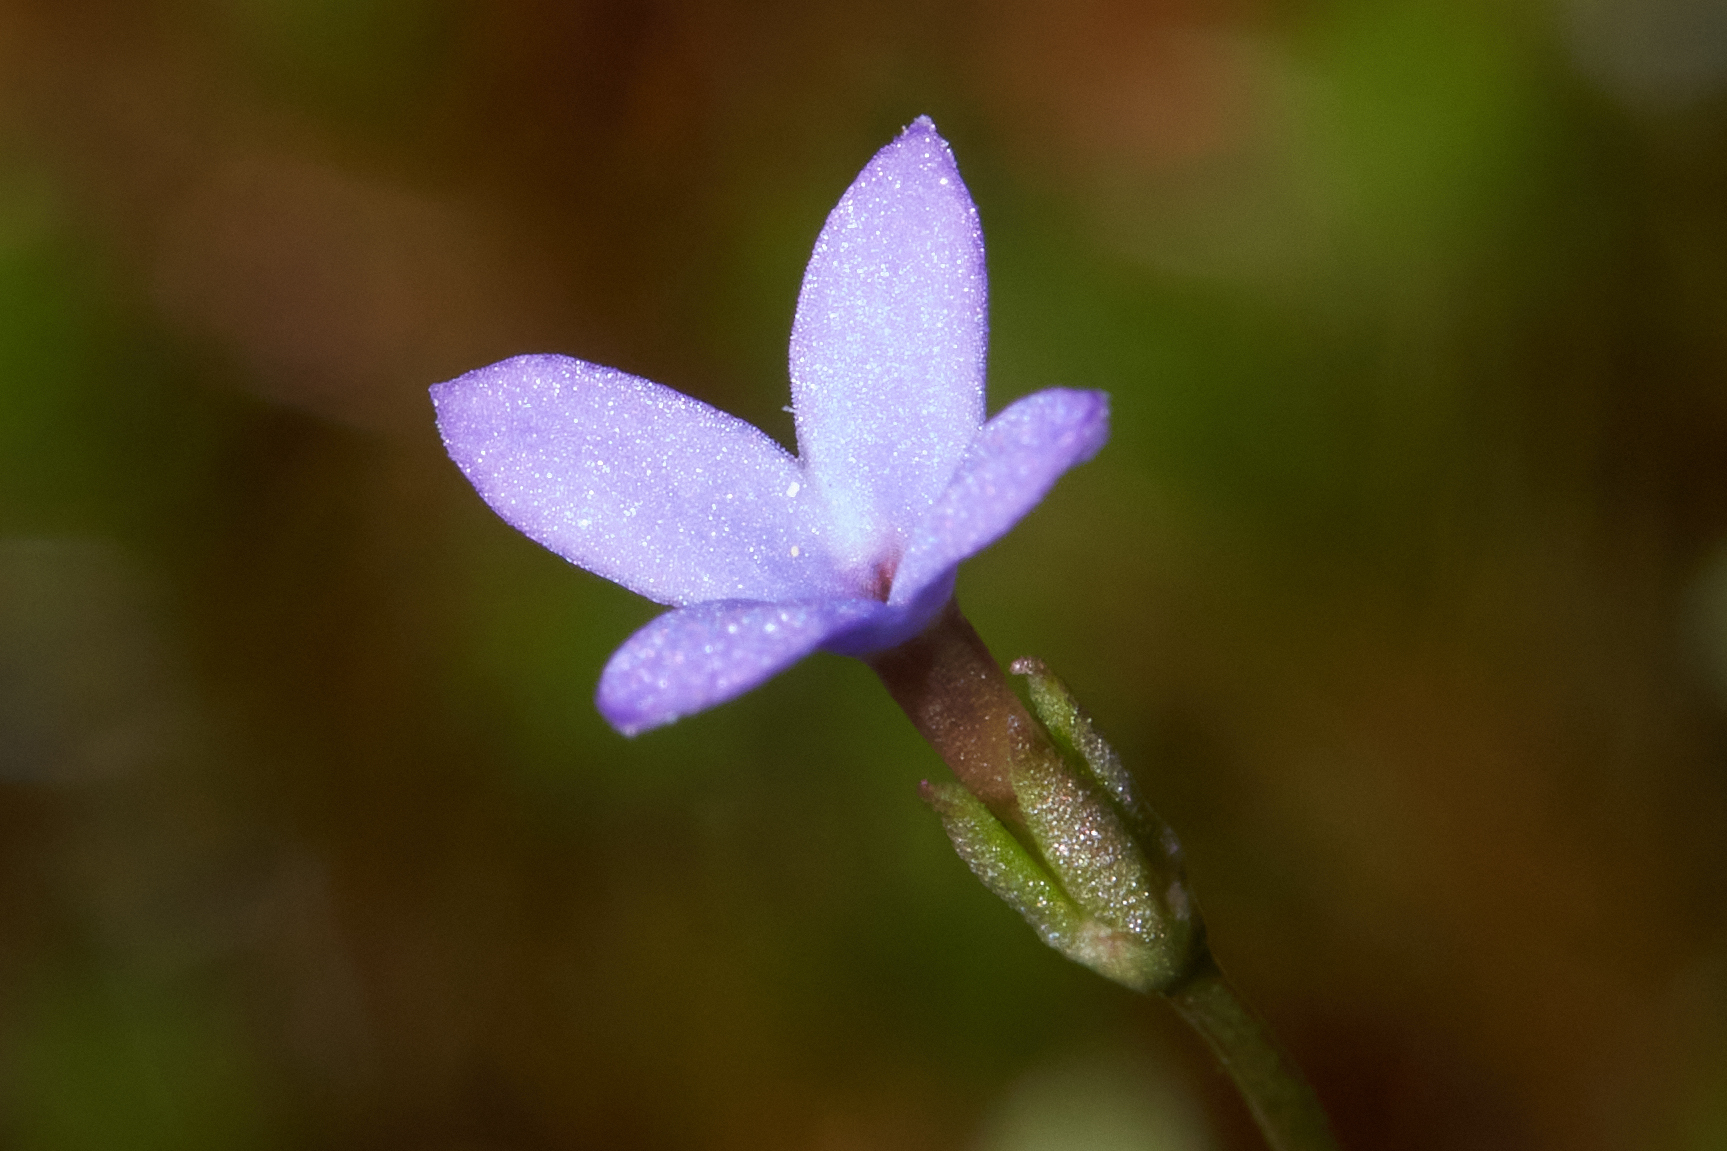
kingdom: Plantae
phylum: Tracheophyta
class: Magnoliopsida
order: Gentianales
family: Rubiaceae
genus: Houstonia
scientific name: Houstonia pusilla
